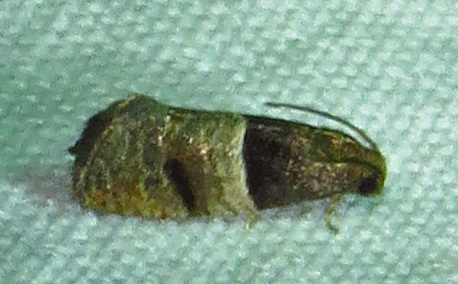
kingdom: Animalia
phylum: Arthropoda
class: Insecta
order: Lepidoptera
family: Tortricidae
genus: Larisa
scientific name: Larisa subsolana
